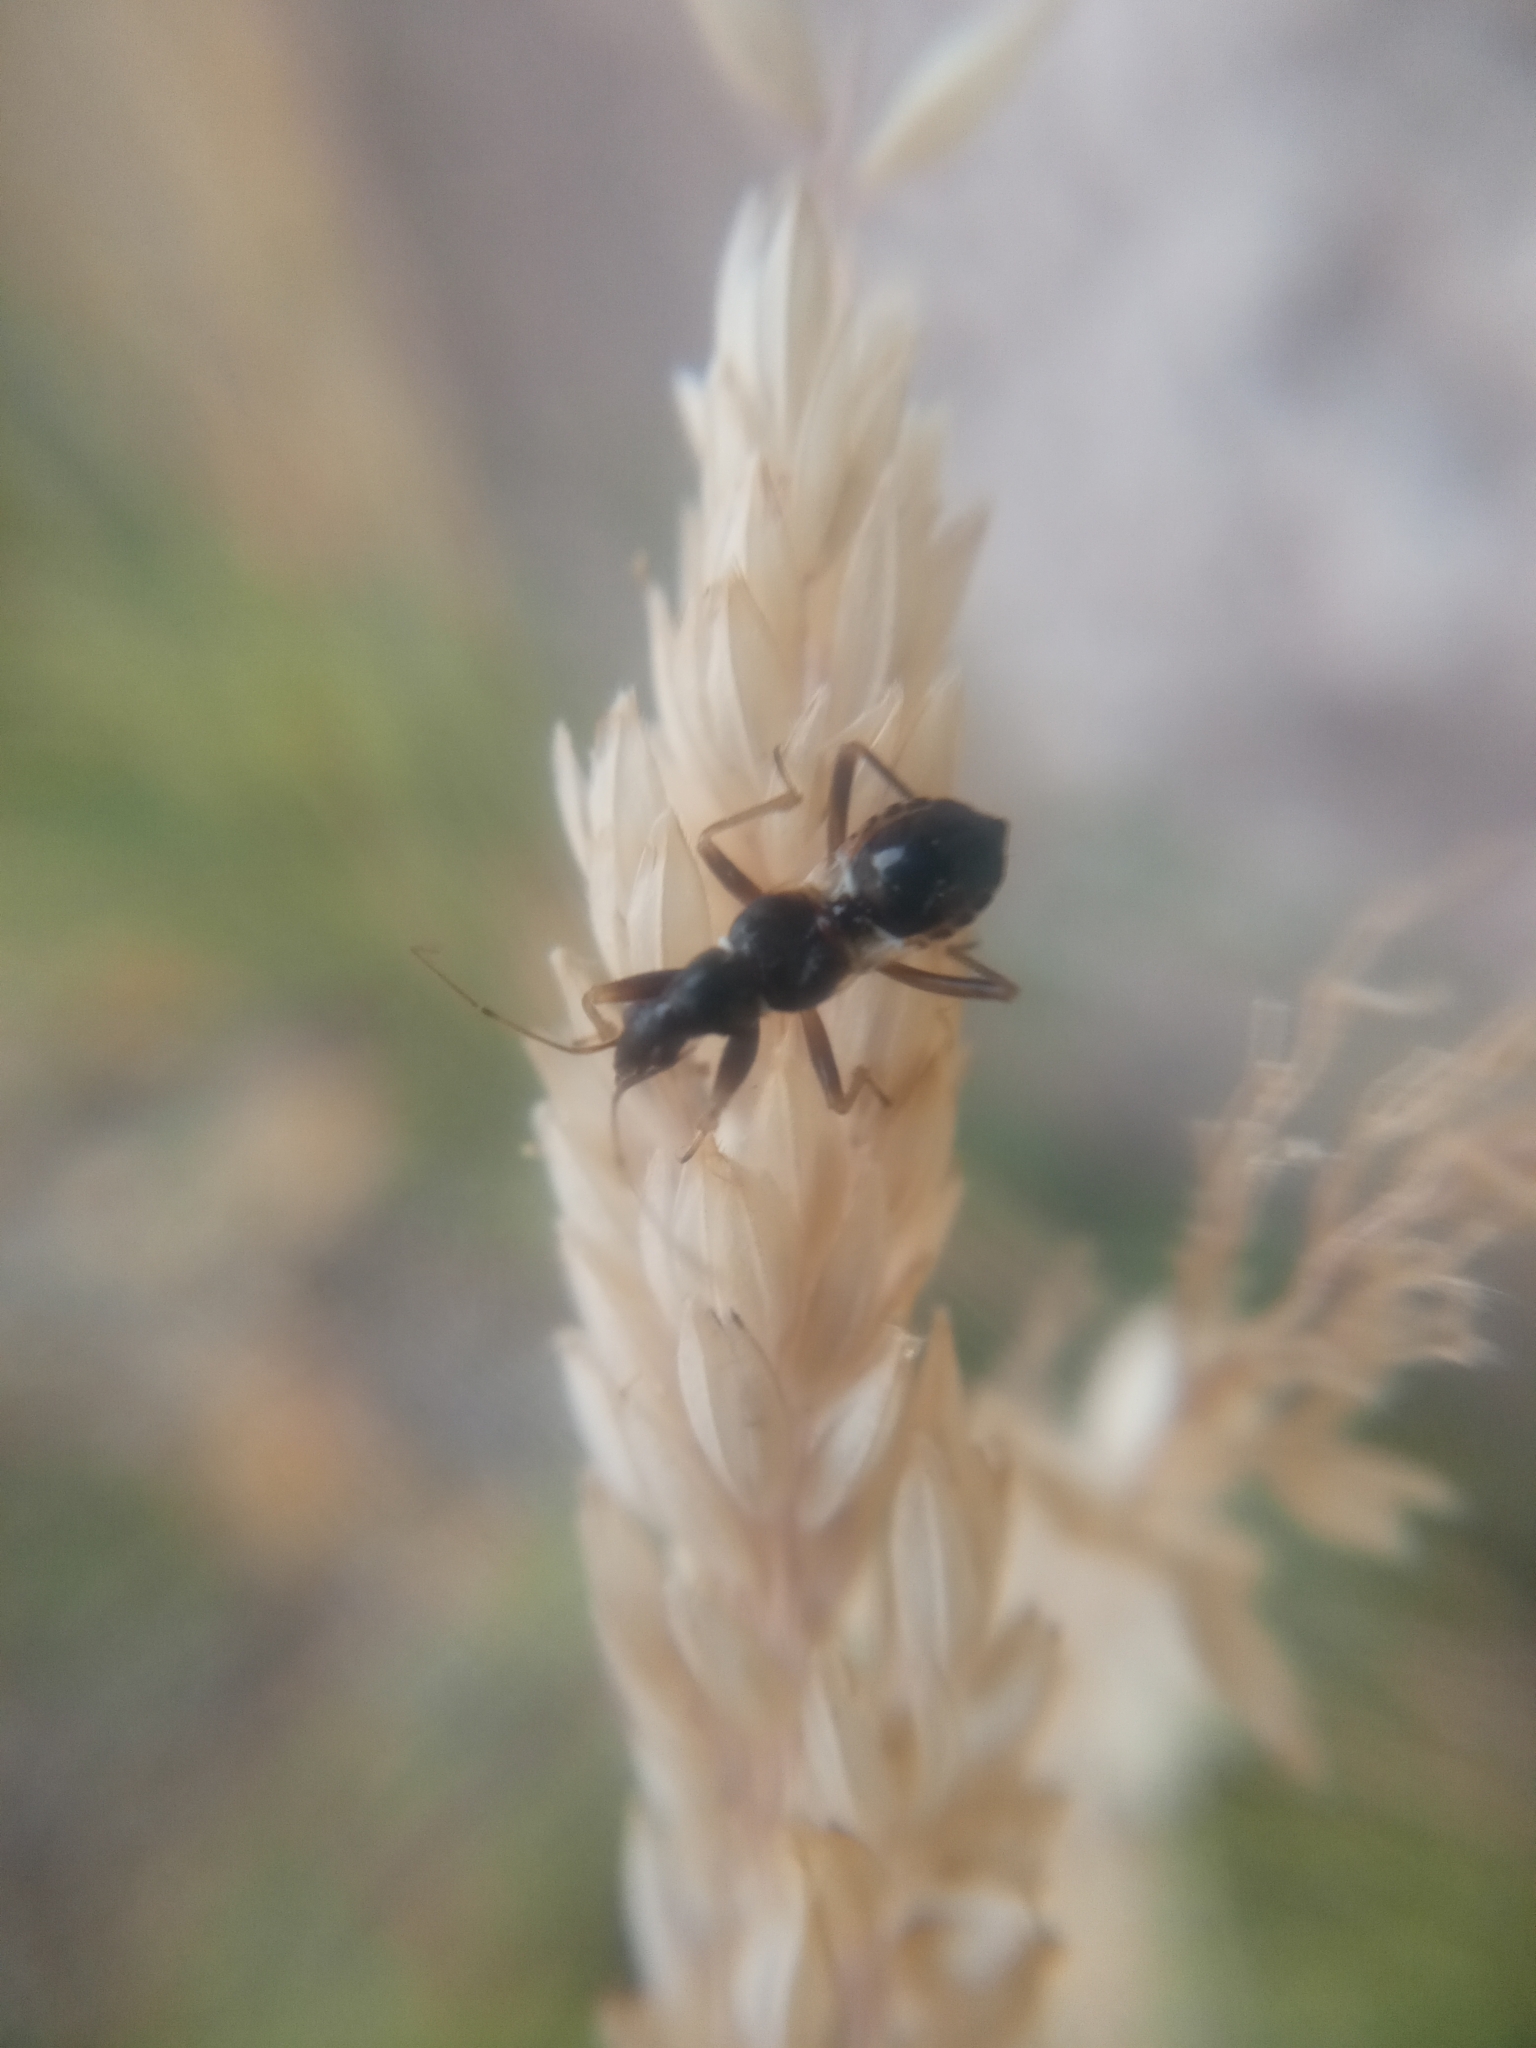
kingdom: Animalia
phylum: Arthropoda
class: Insecta
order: Hemiptera
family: Nabidae
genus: Himacerus
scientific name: Himacerus mirmicoides
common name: Ant damsel bug
